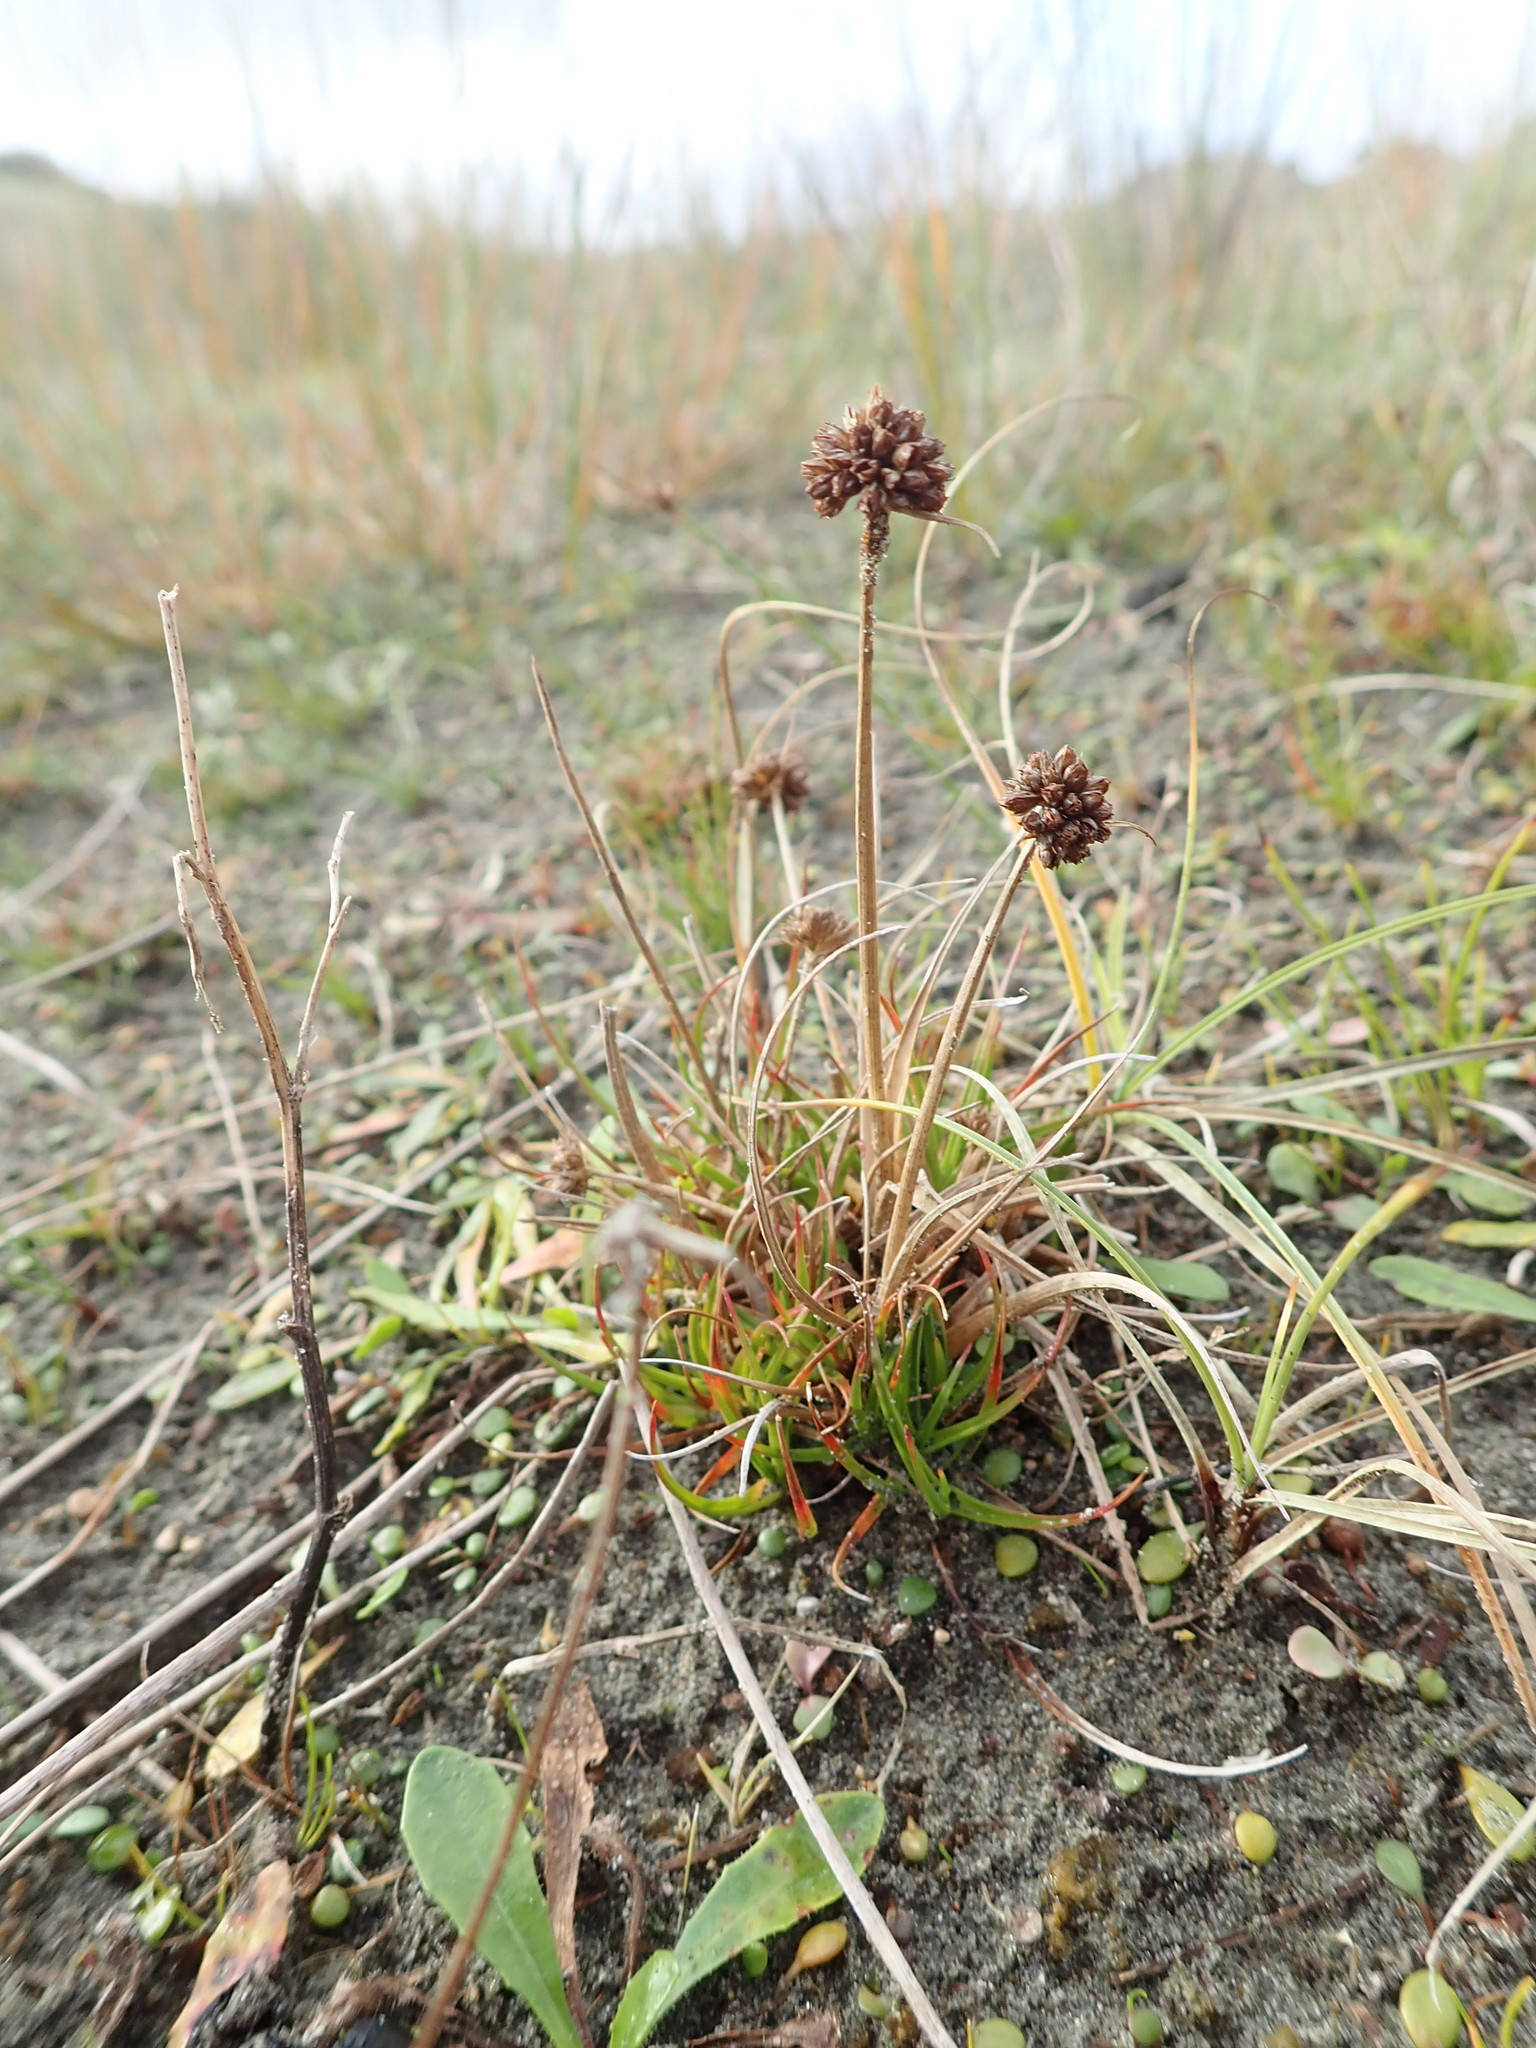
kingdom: Plantae
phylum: Tracheophyta
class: Liliopsida
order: Poales
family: Juncaceae
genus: Juncus
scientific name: Juncus caespiticius
